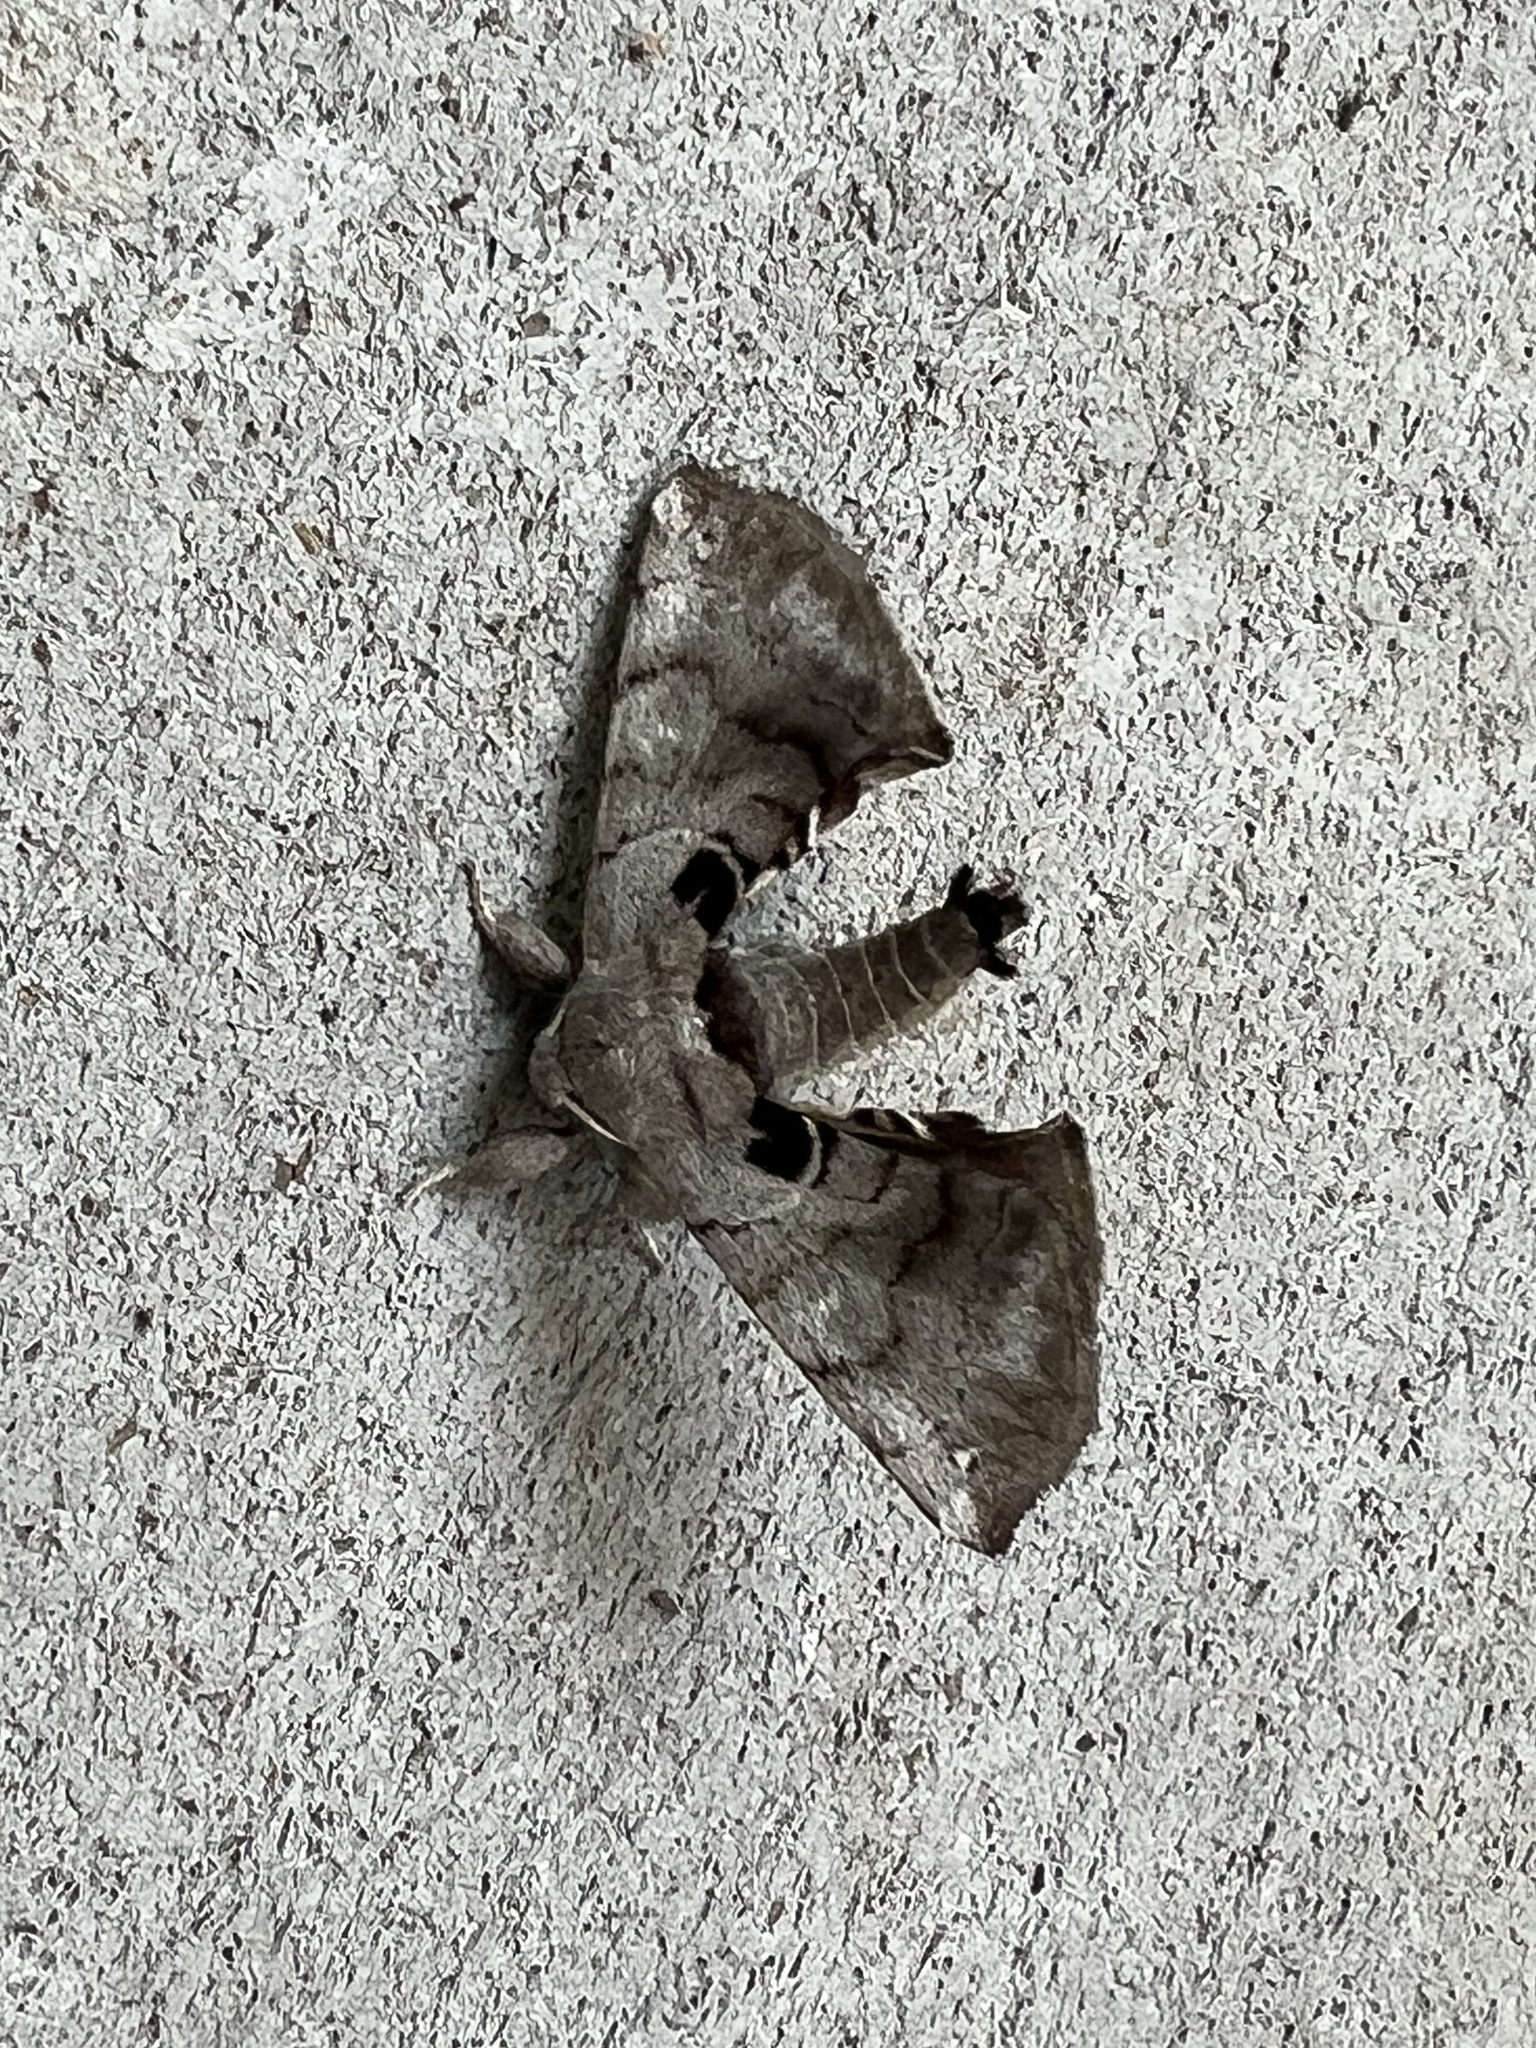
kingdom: Animalia
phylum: Arthropoda
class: Insecta
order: Lepidoptera
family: Apatelodidae
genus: Hygrochroa
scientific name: Hygrochroa Apatelodes torrefacta
